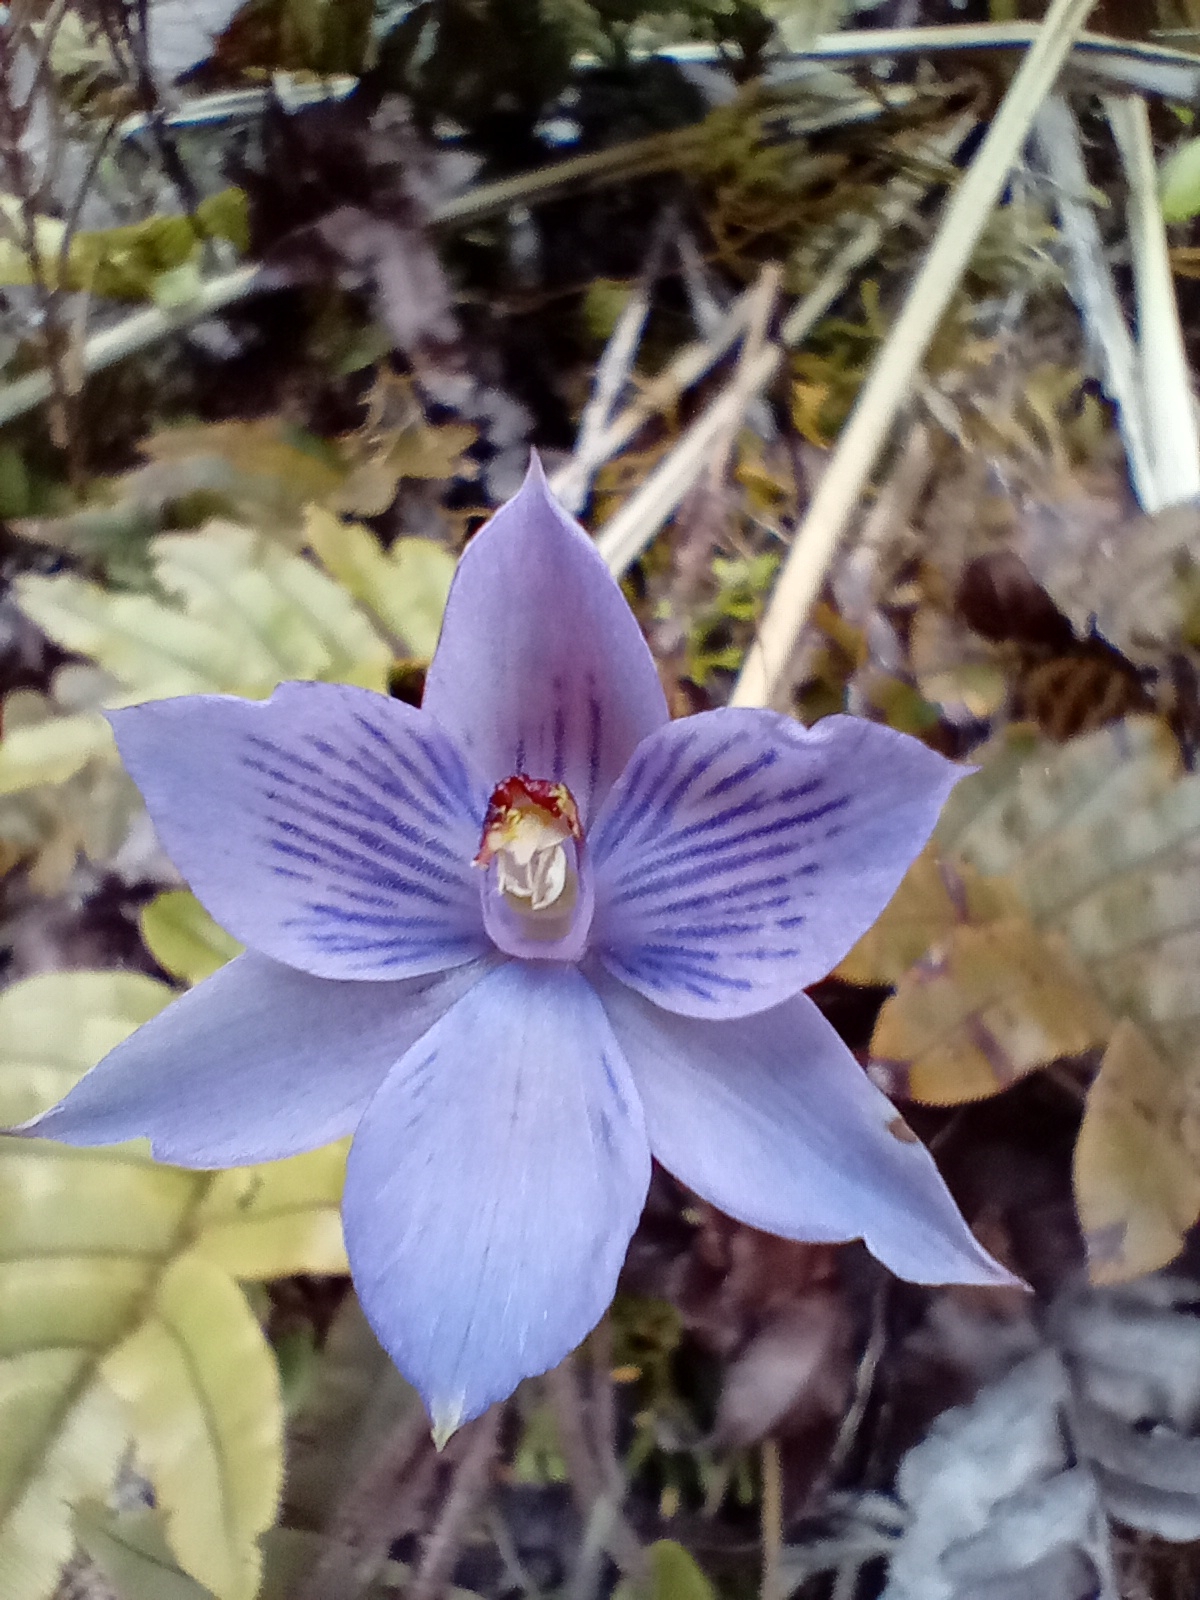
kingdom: Plantae
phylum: Tracheophyta
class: Liliopsida
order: Asparagales
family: Orchidaceae
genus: Thelymitra
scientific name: Thelymitra pulchella
